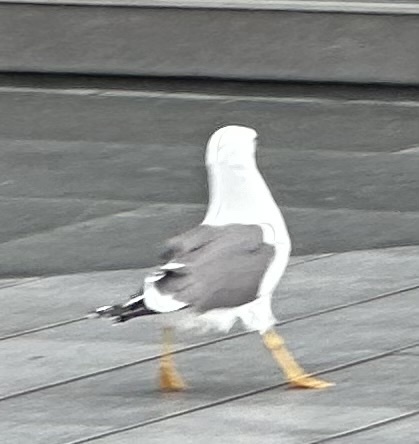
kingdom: Animalia
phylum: Chordata
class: Aves
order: Charadriiformes
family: Laridae
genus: Larus
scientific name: Larus fuscus
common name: Lesser black-backed gull
